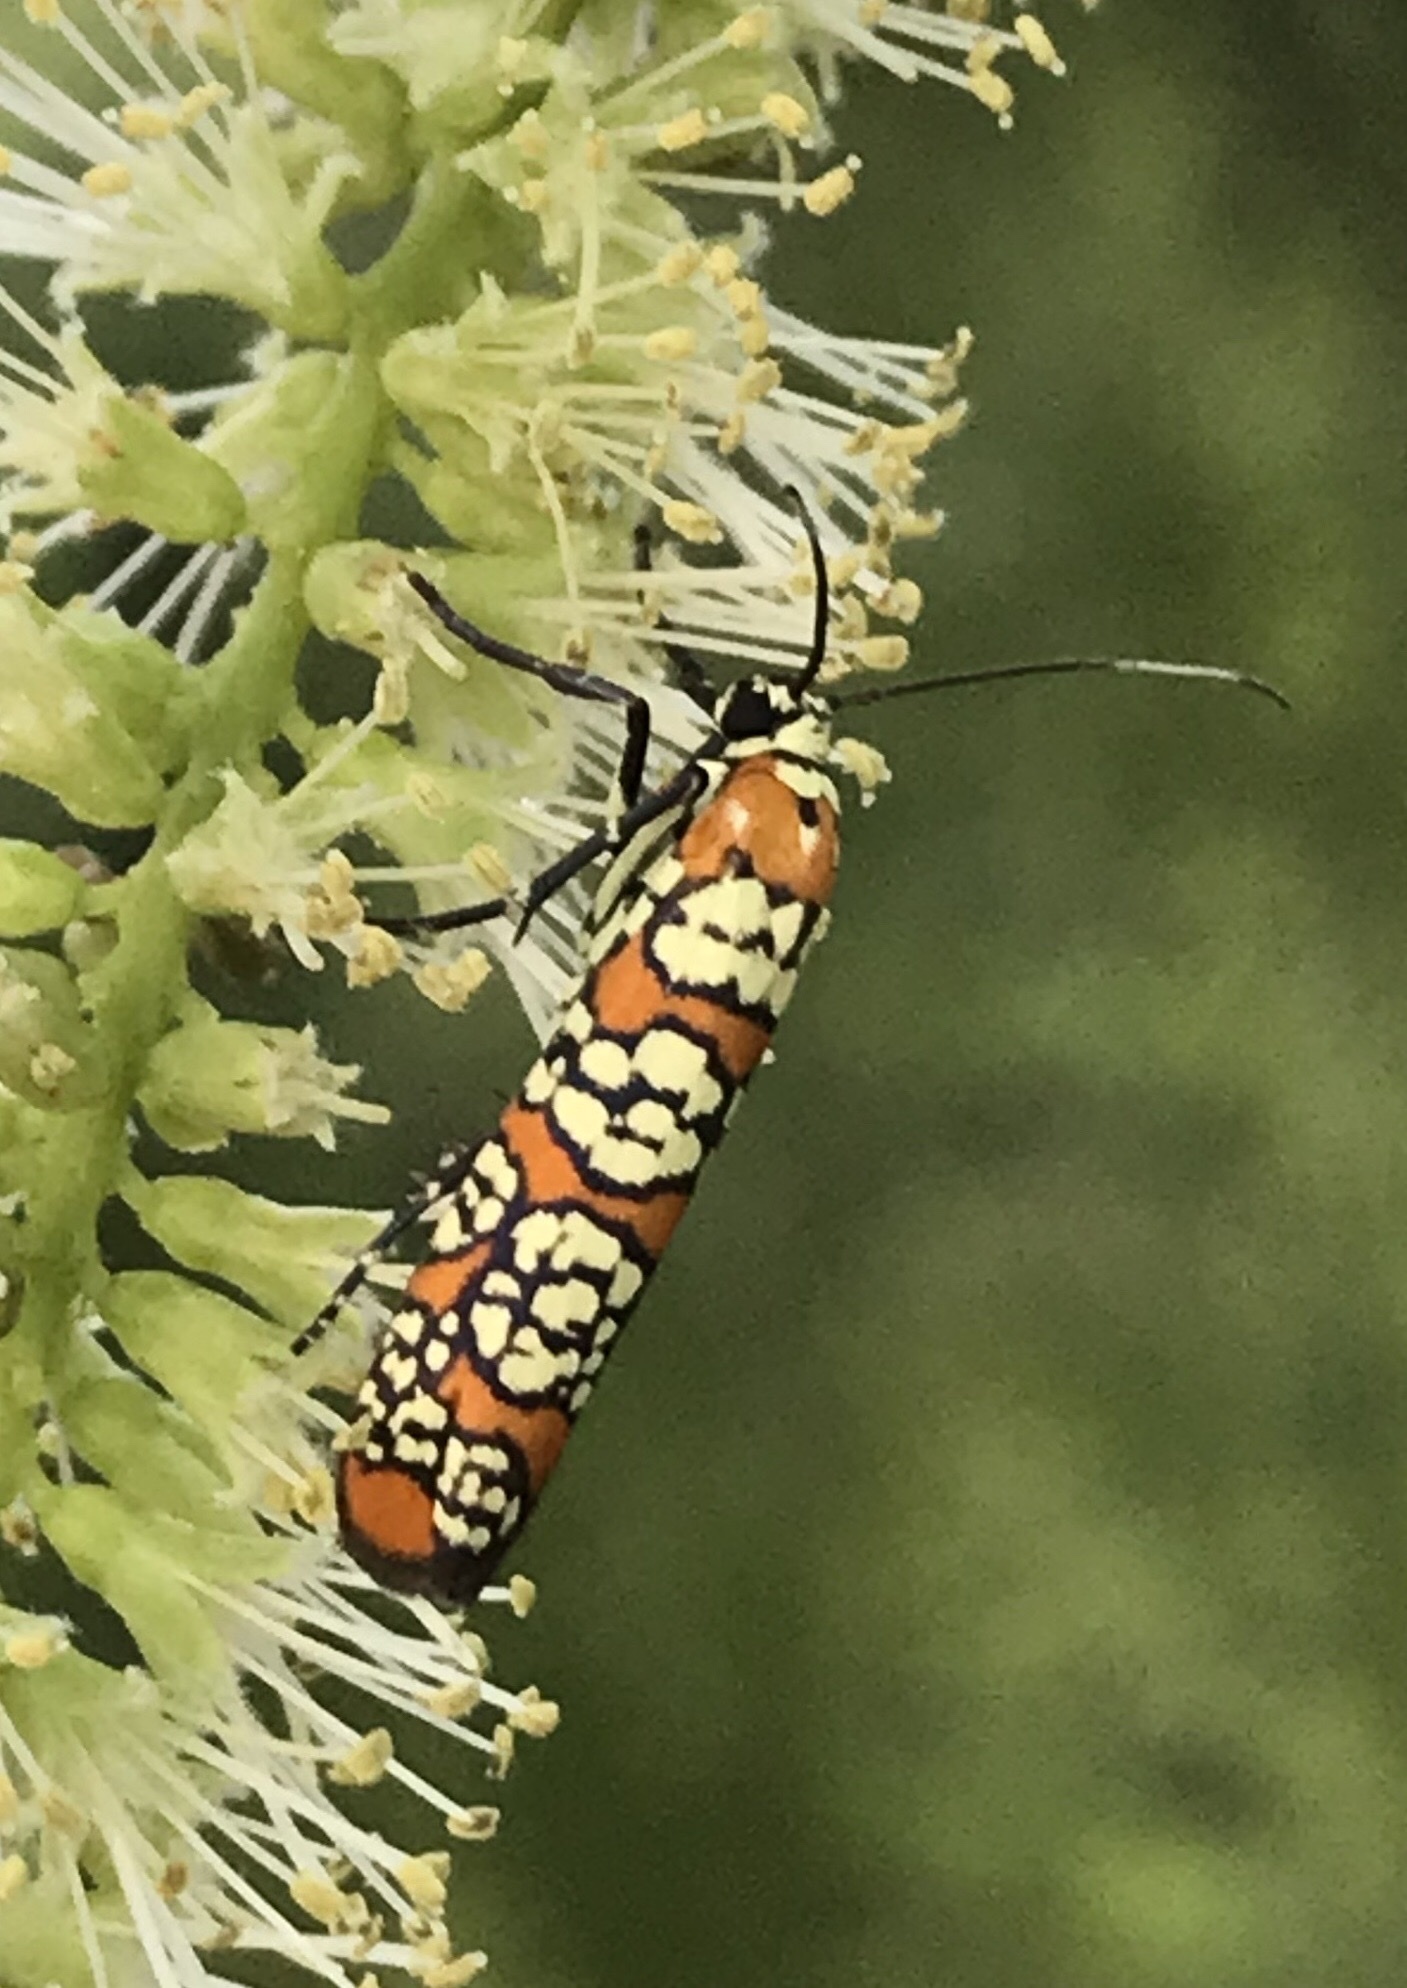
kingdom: Animalia
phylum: Arthropoda
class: Insecta
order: Lepidoptera
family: Attevidae
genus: Atteva
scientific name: Atteva punctella
